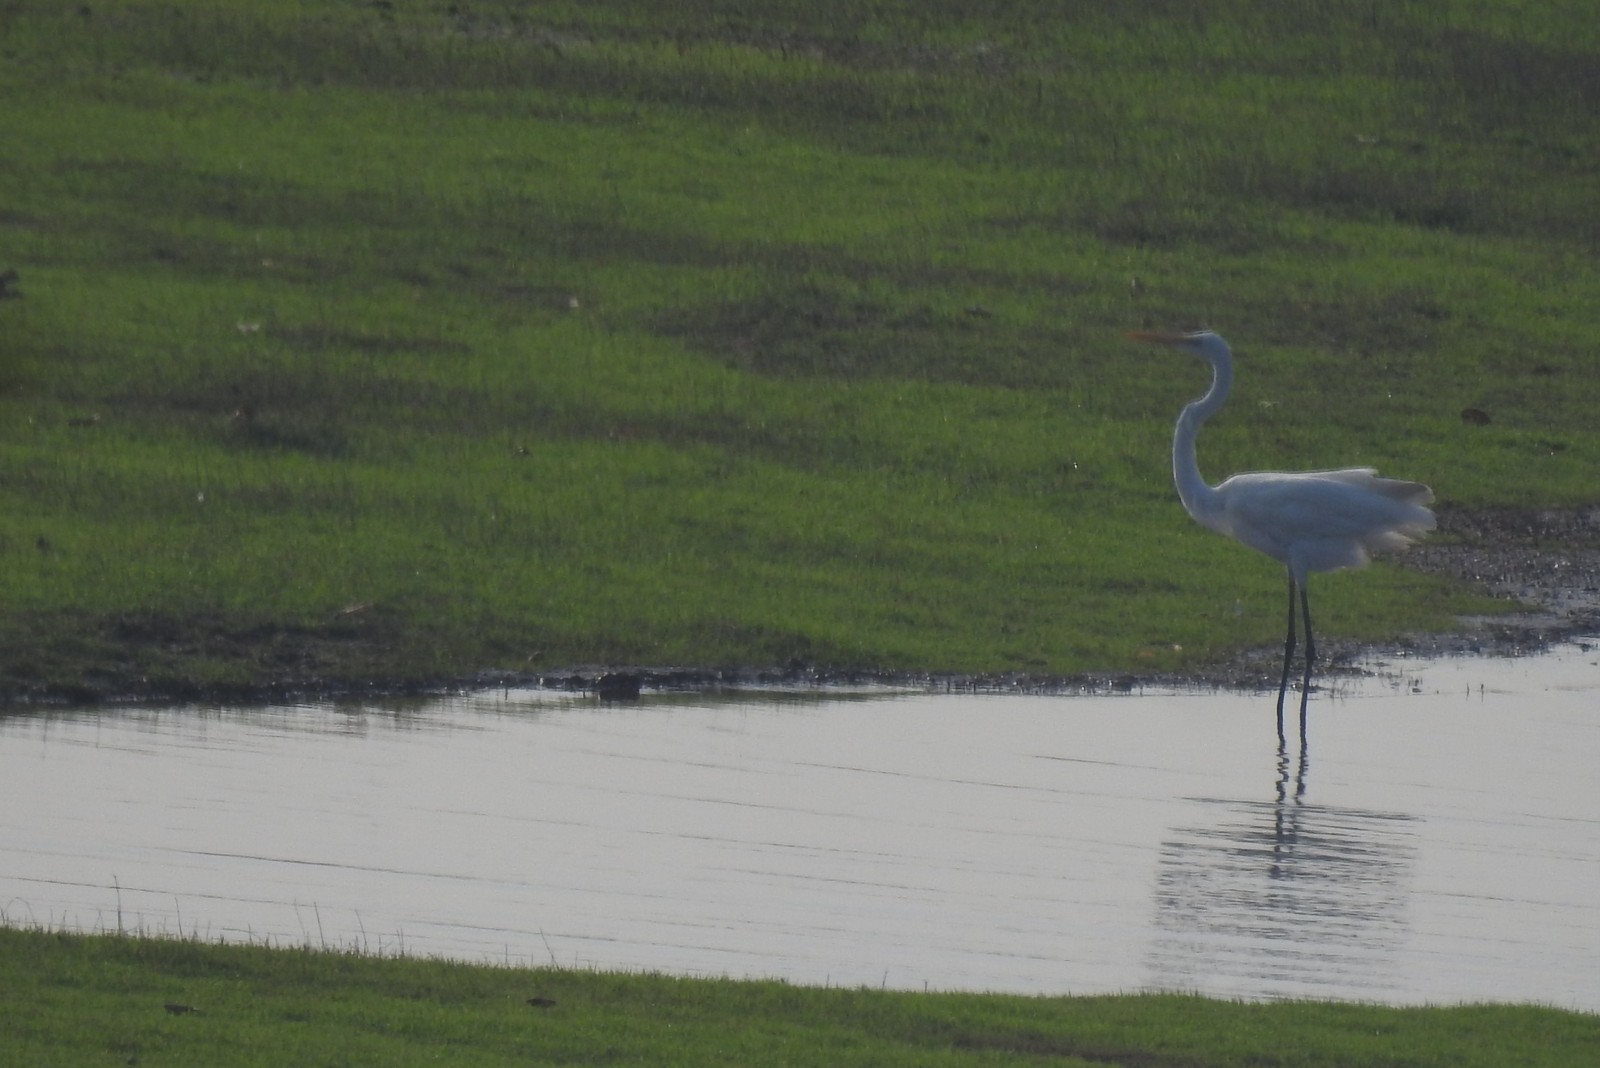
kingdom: Animalia
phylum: Chordata
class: Aves
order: Pelecaniformes
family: Ardeidae
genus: Ardea
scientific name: Ardea alba
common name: Great egret
